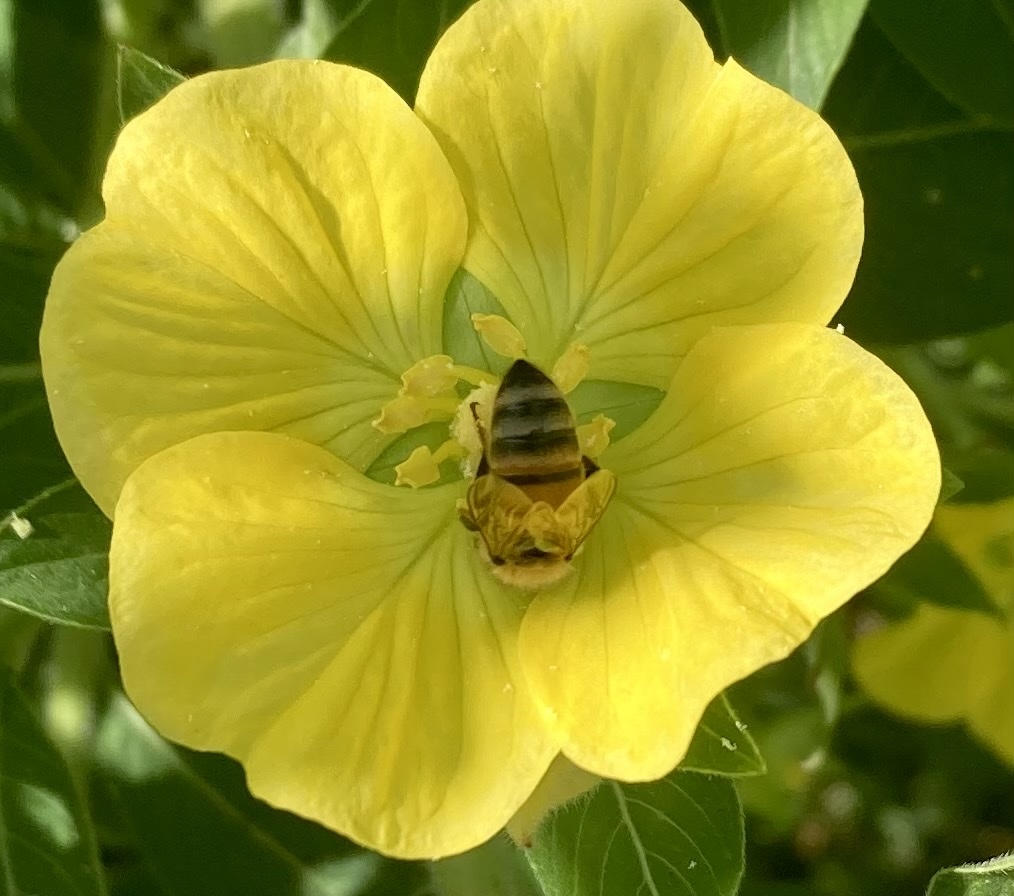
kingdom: Animalia
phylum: Arthropoda
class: Insecta
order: Hymenoptera
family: Apidae
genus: Apis
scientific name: Apis mellifera
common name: Honey bee
